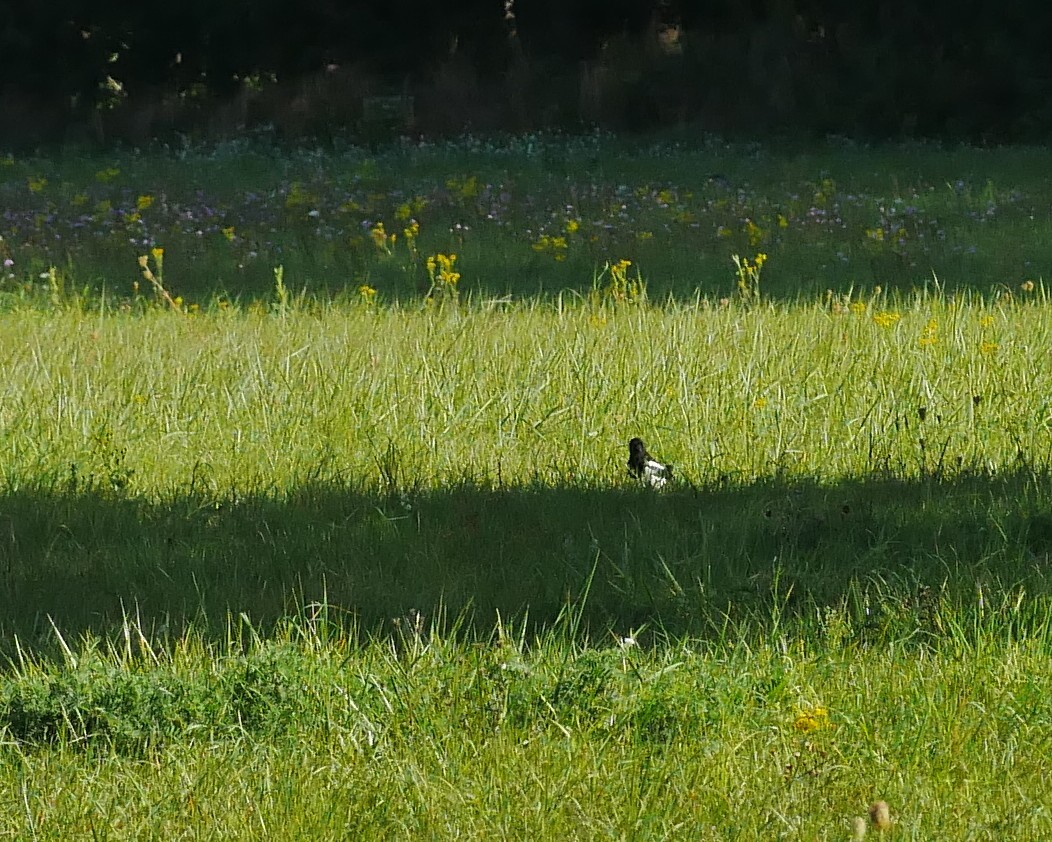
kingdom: Animalia
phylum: Chordata
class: Aves
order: Passeriformes
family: Corvidae
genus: Pica
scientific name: Pica pica
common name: Eurasian magpie
